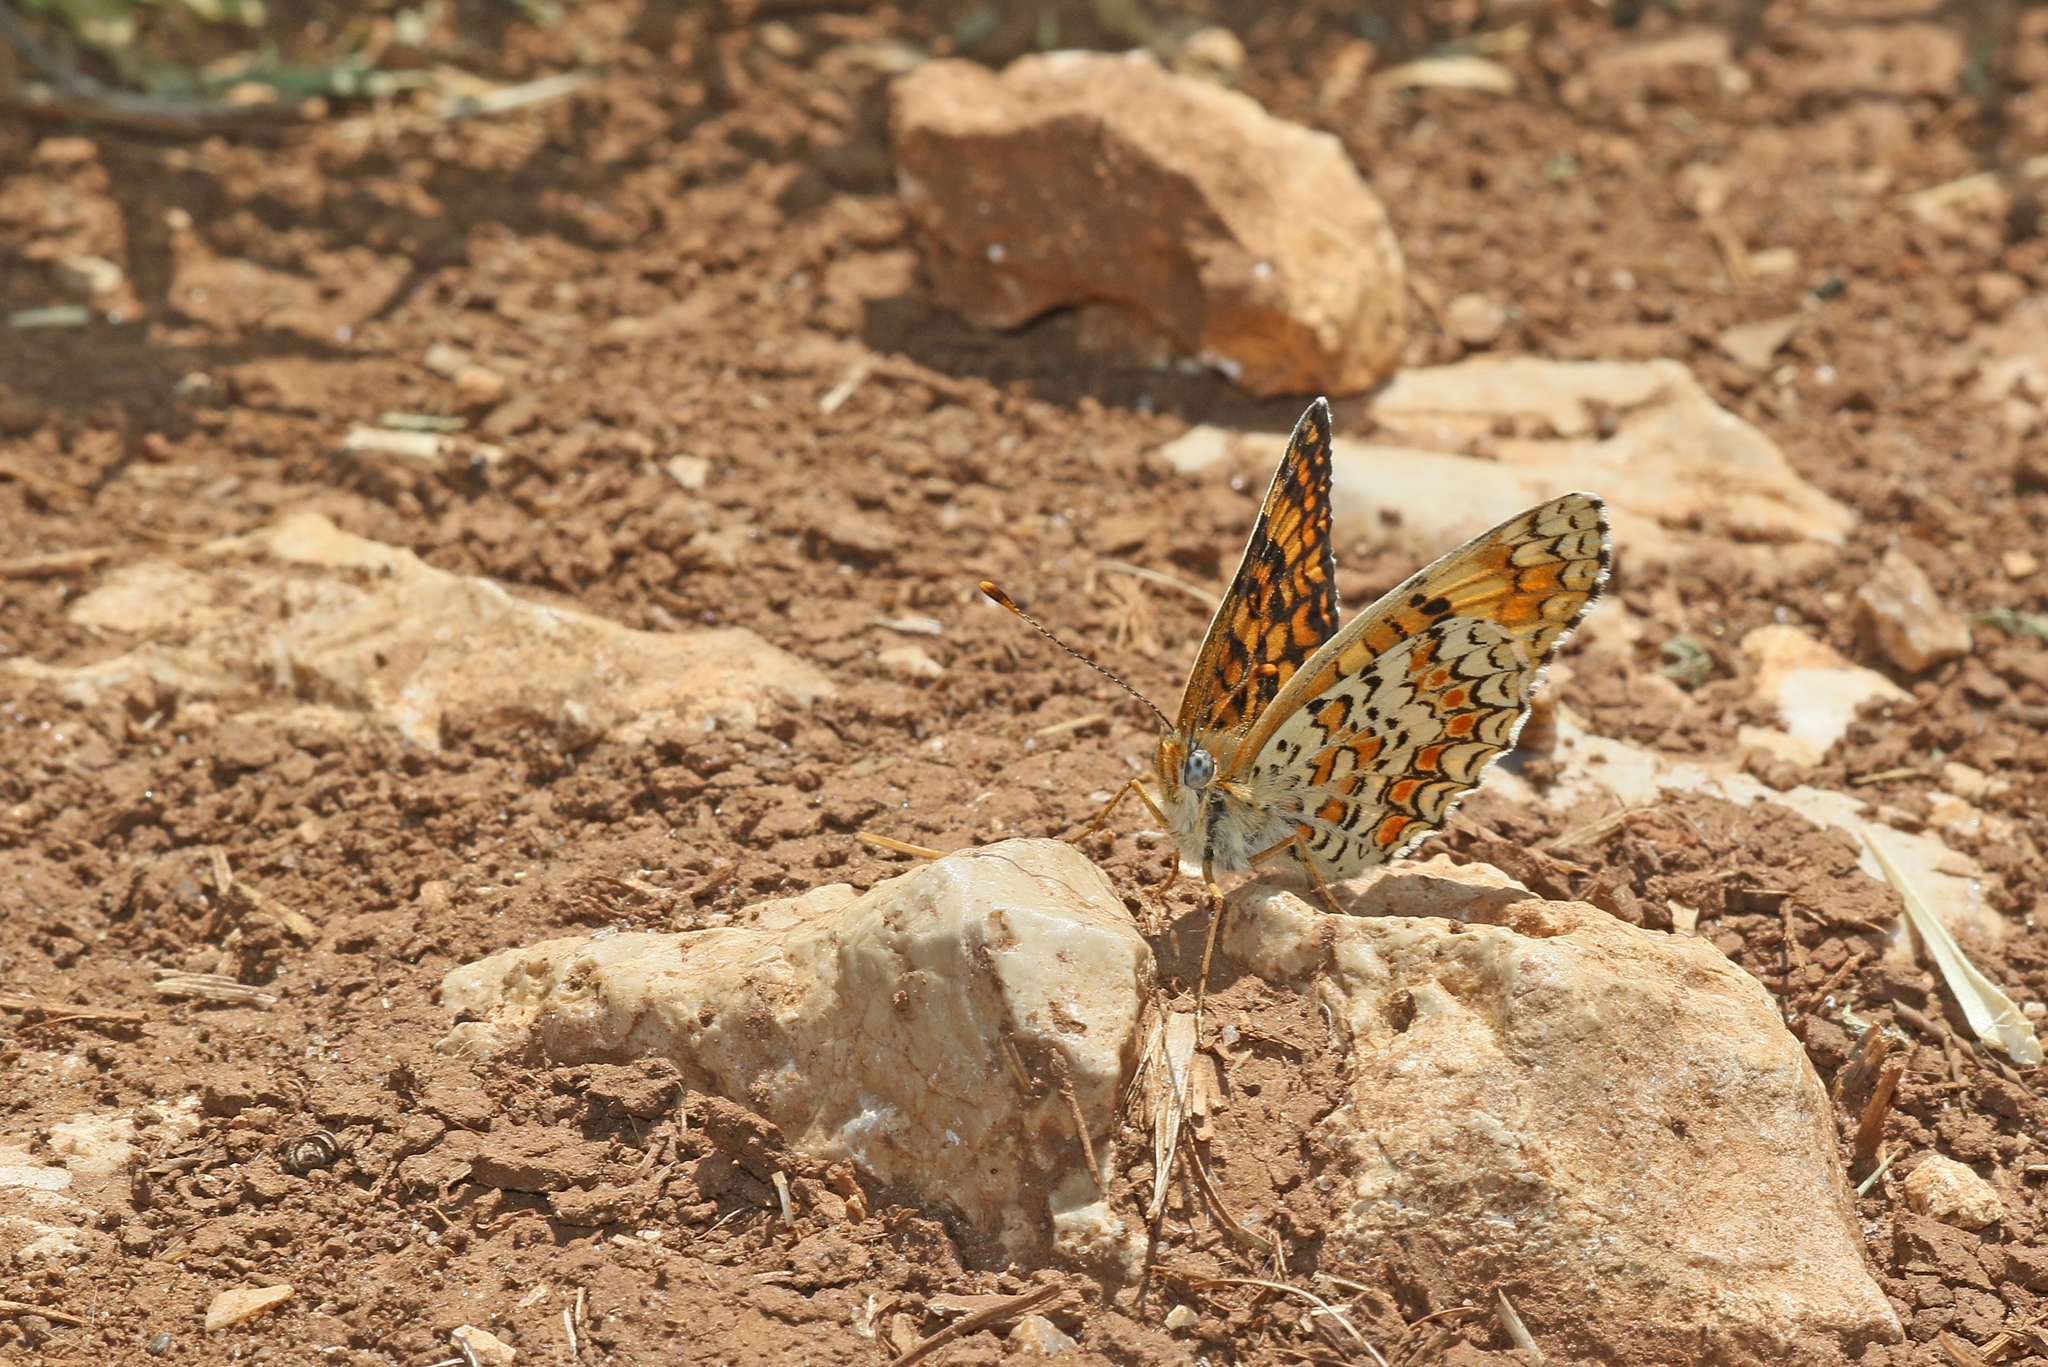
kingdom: Animalia
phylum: Arthropoda
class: Insecta
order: Lepidoptera
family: Nymphalidae
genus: Melitaea
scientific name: Melitaea phoebe
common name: Knapweed fritillary
